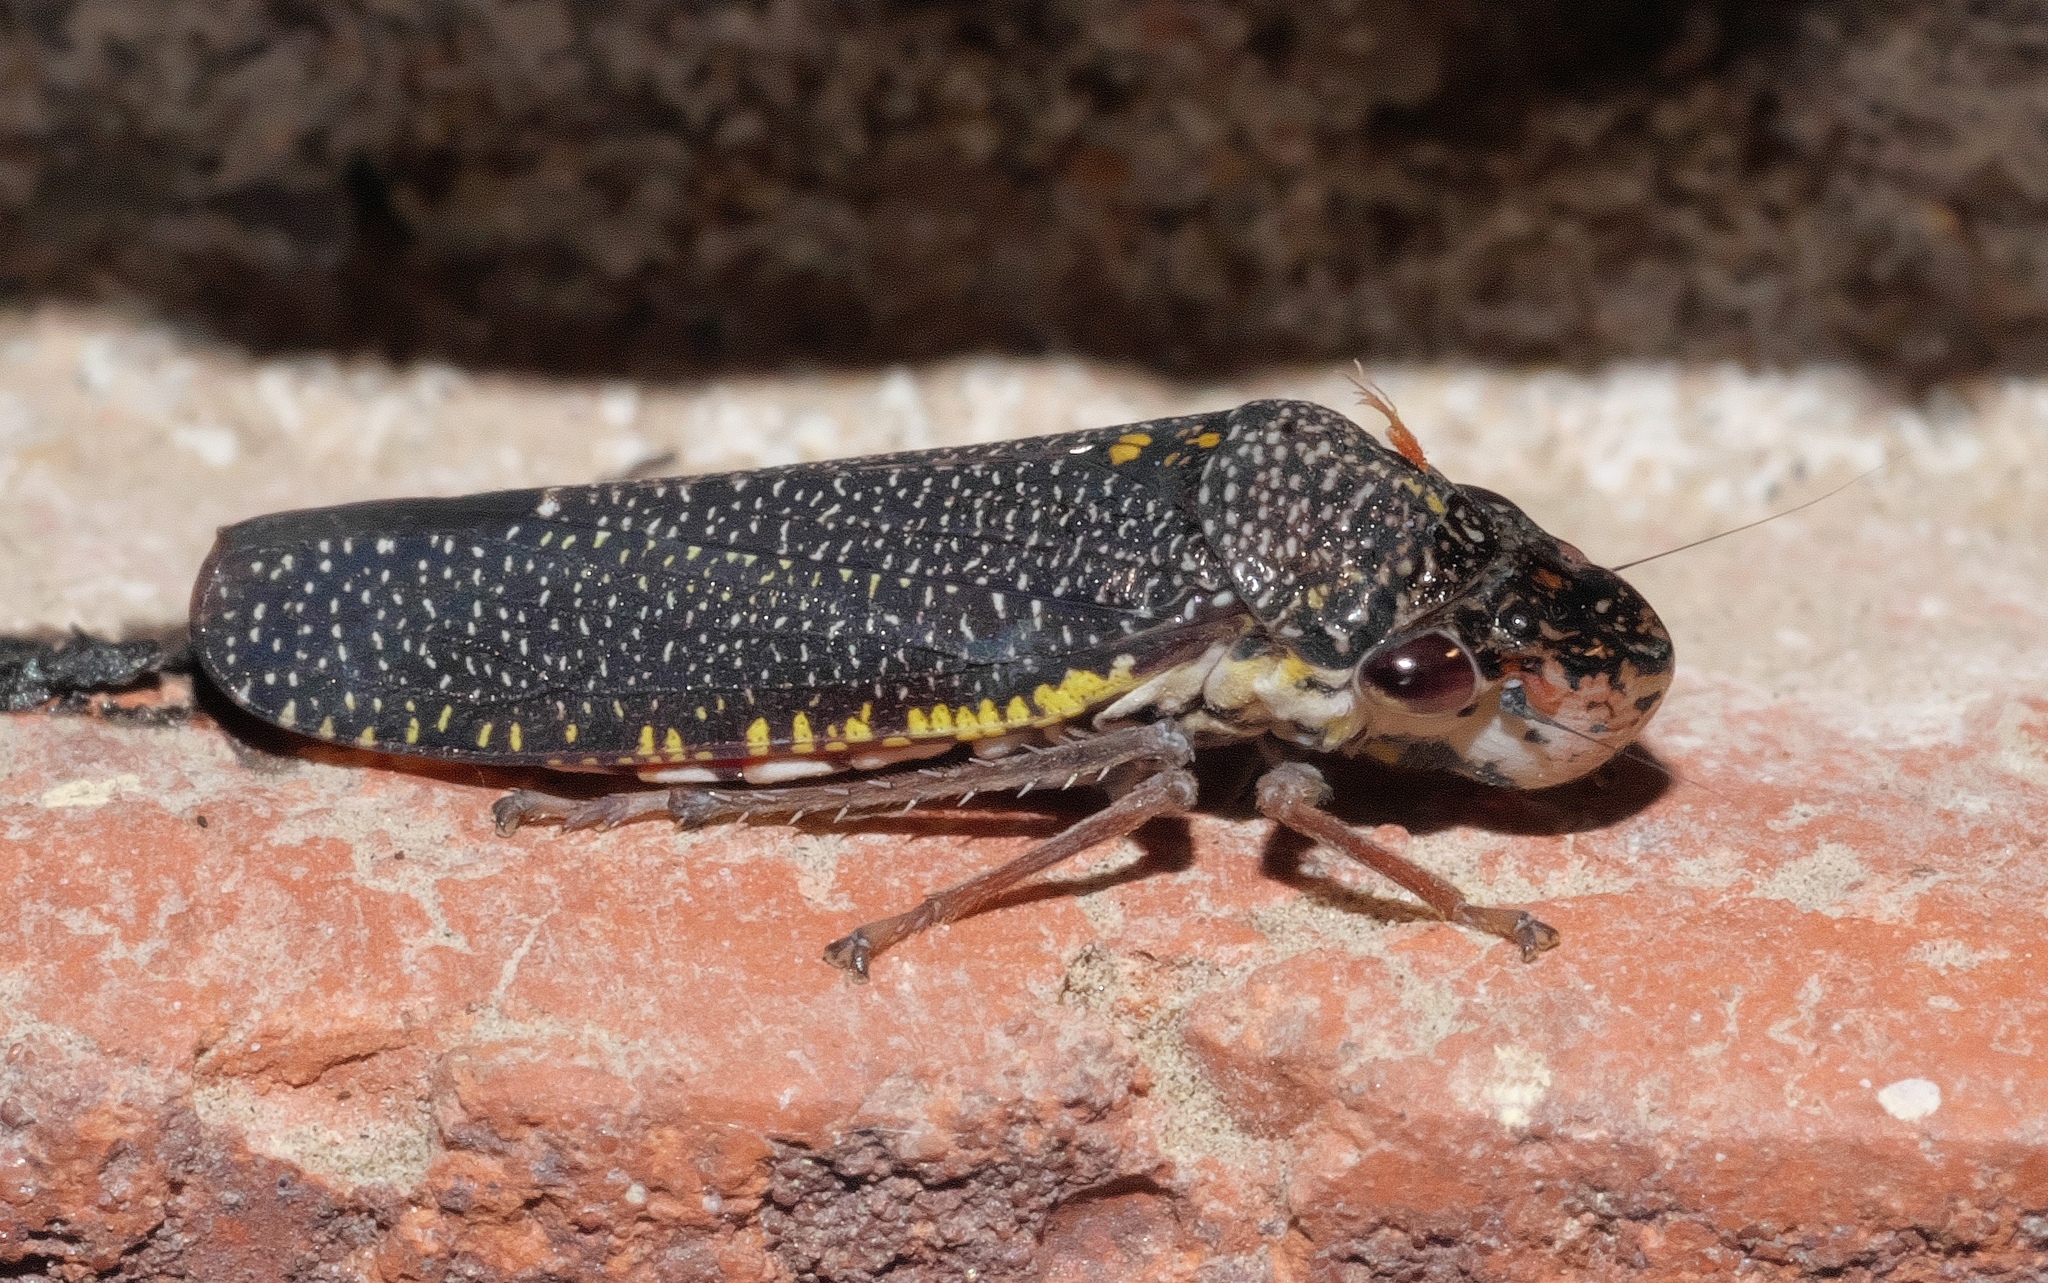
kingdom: Animalia
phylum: Arthropoda
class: Insecta
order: Hemiptera
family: Cicadellidae
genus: Paraulacizes
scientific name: Paraulacizes irrorata
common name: Speckled sharpshooter
